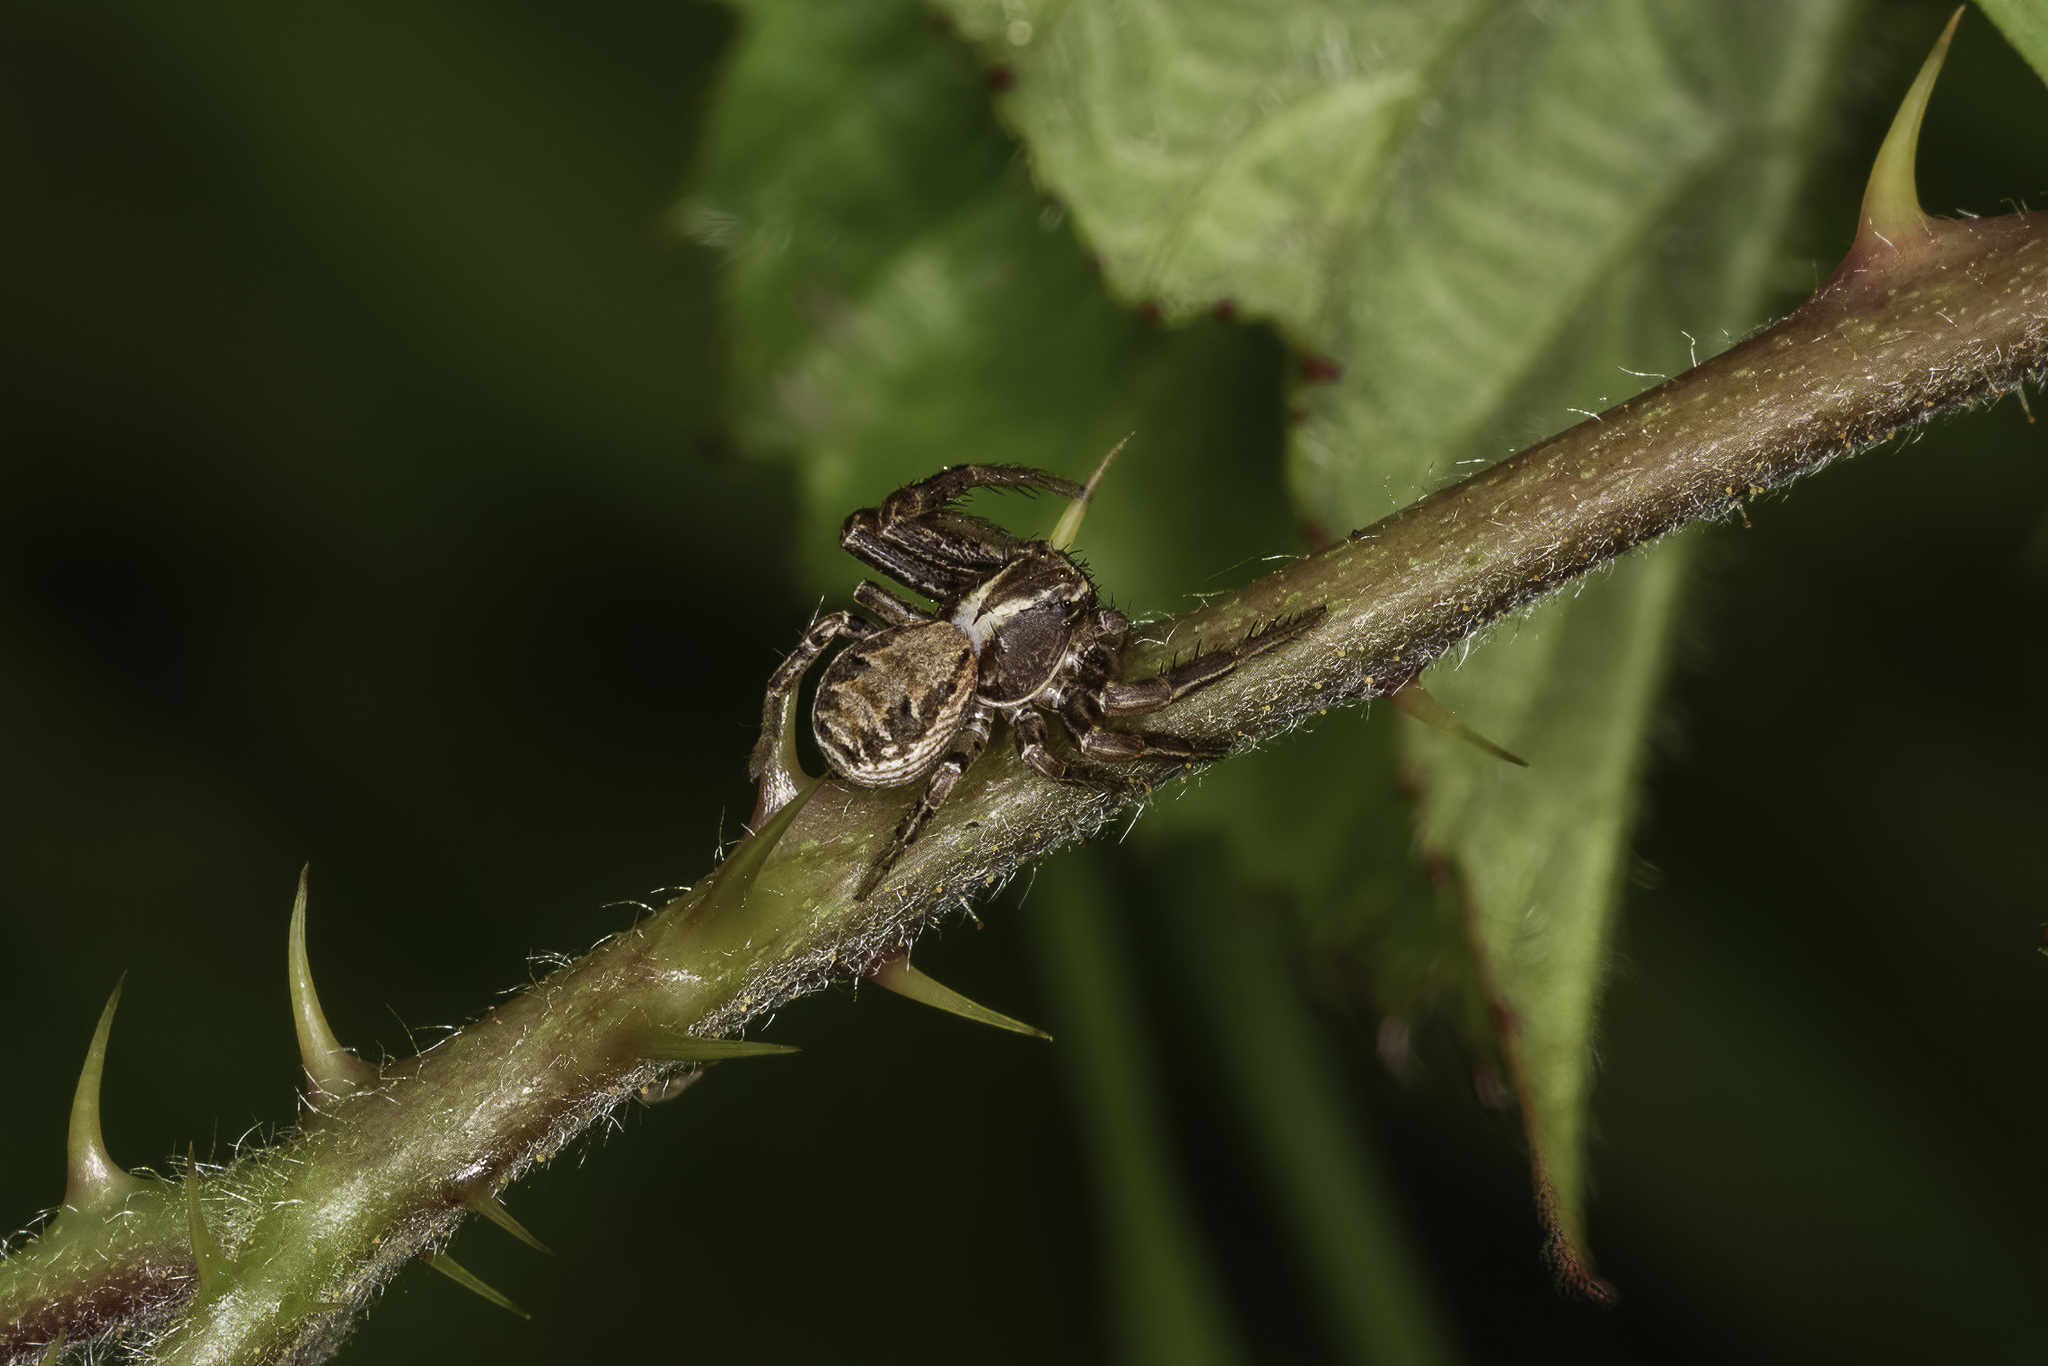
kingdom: Animalia
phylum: Arthropoda
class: Arachnida
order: Araneae
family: Thomisidae
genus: Xysticus
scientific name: Xysticus
